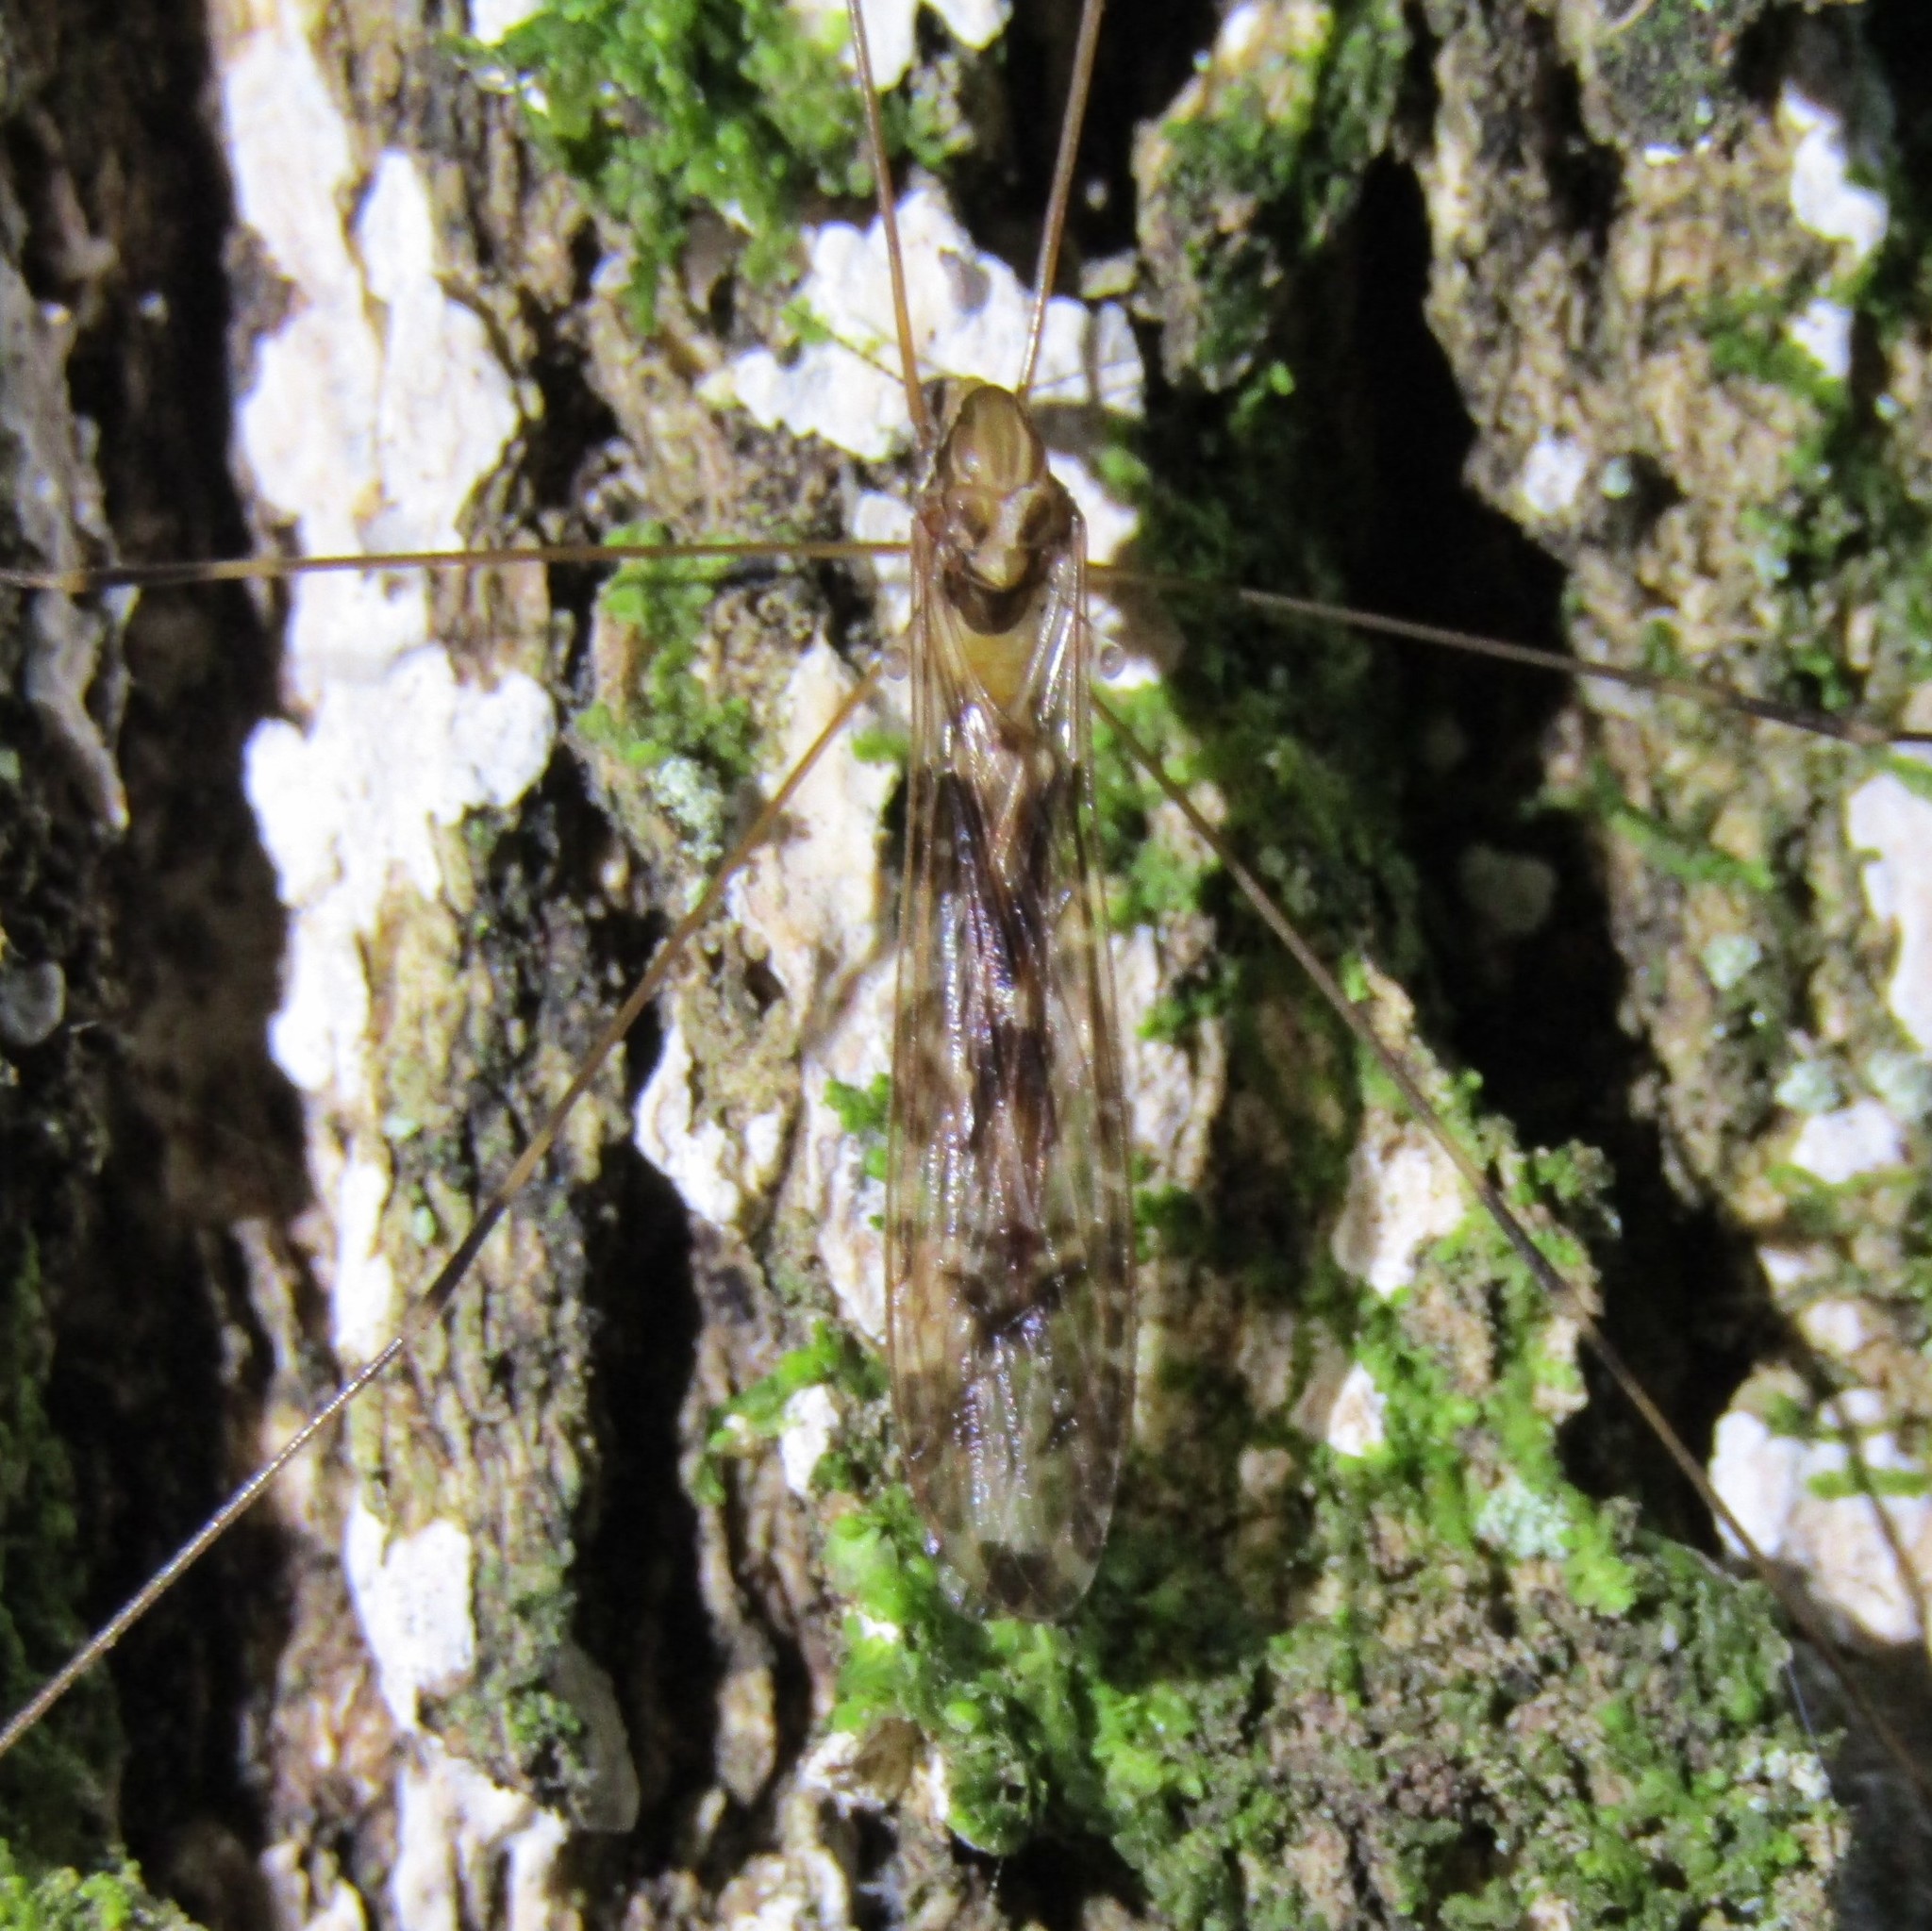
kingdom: Animalia
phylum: Arthropoda
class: Insecta
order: Diptera
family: Limoniidae
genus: Discobola
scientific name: Discobola dohrni
